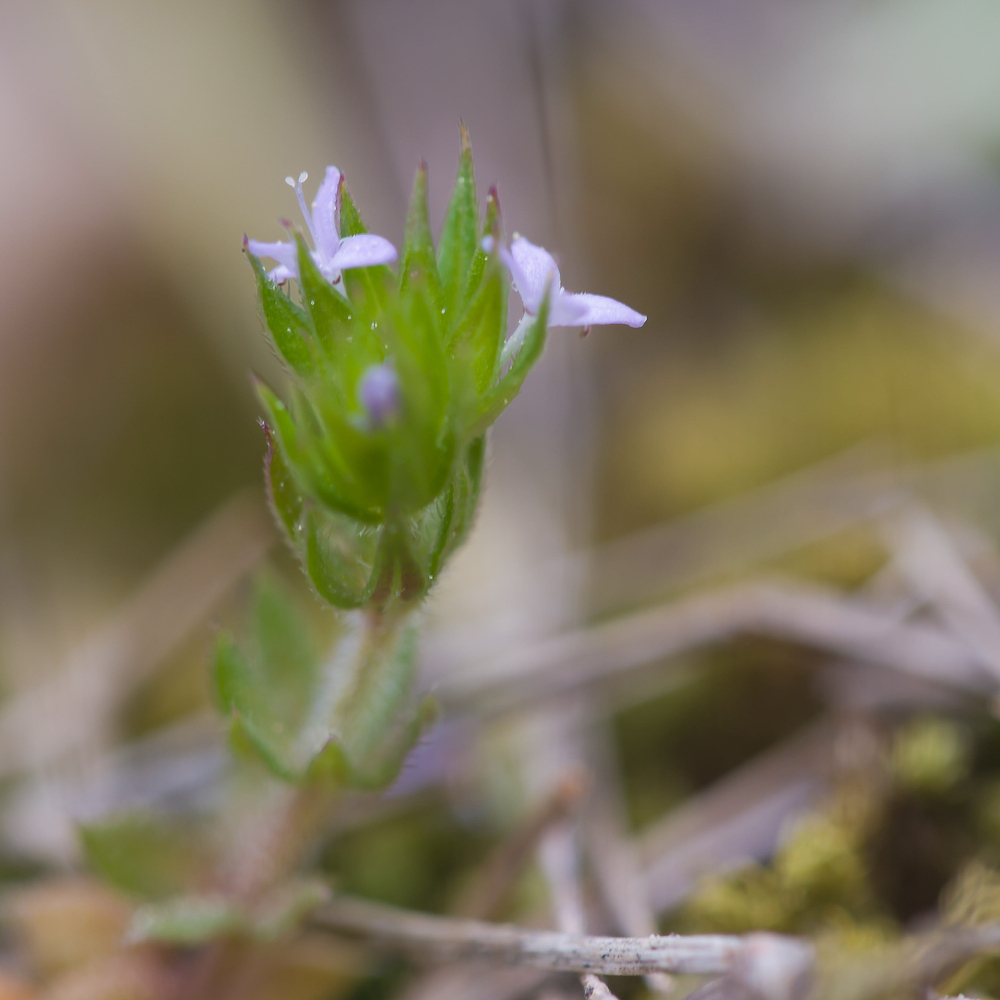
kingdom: Plantae
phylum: Tracheophyta
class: Magnoliopsida
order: Gentianales
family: Rubiaceae
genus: Sherardia
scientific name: Sherardia arvensis
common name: Field madder
